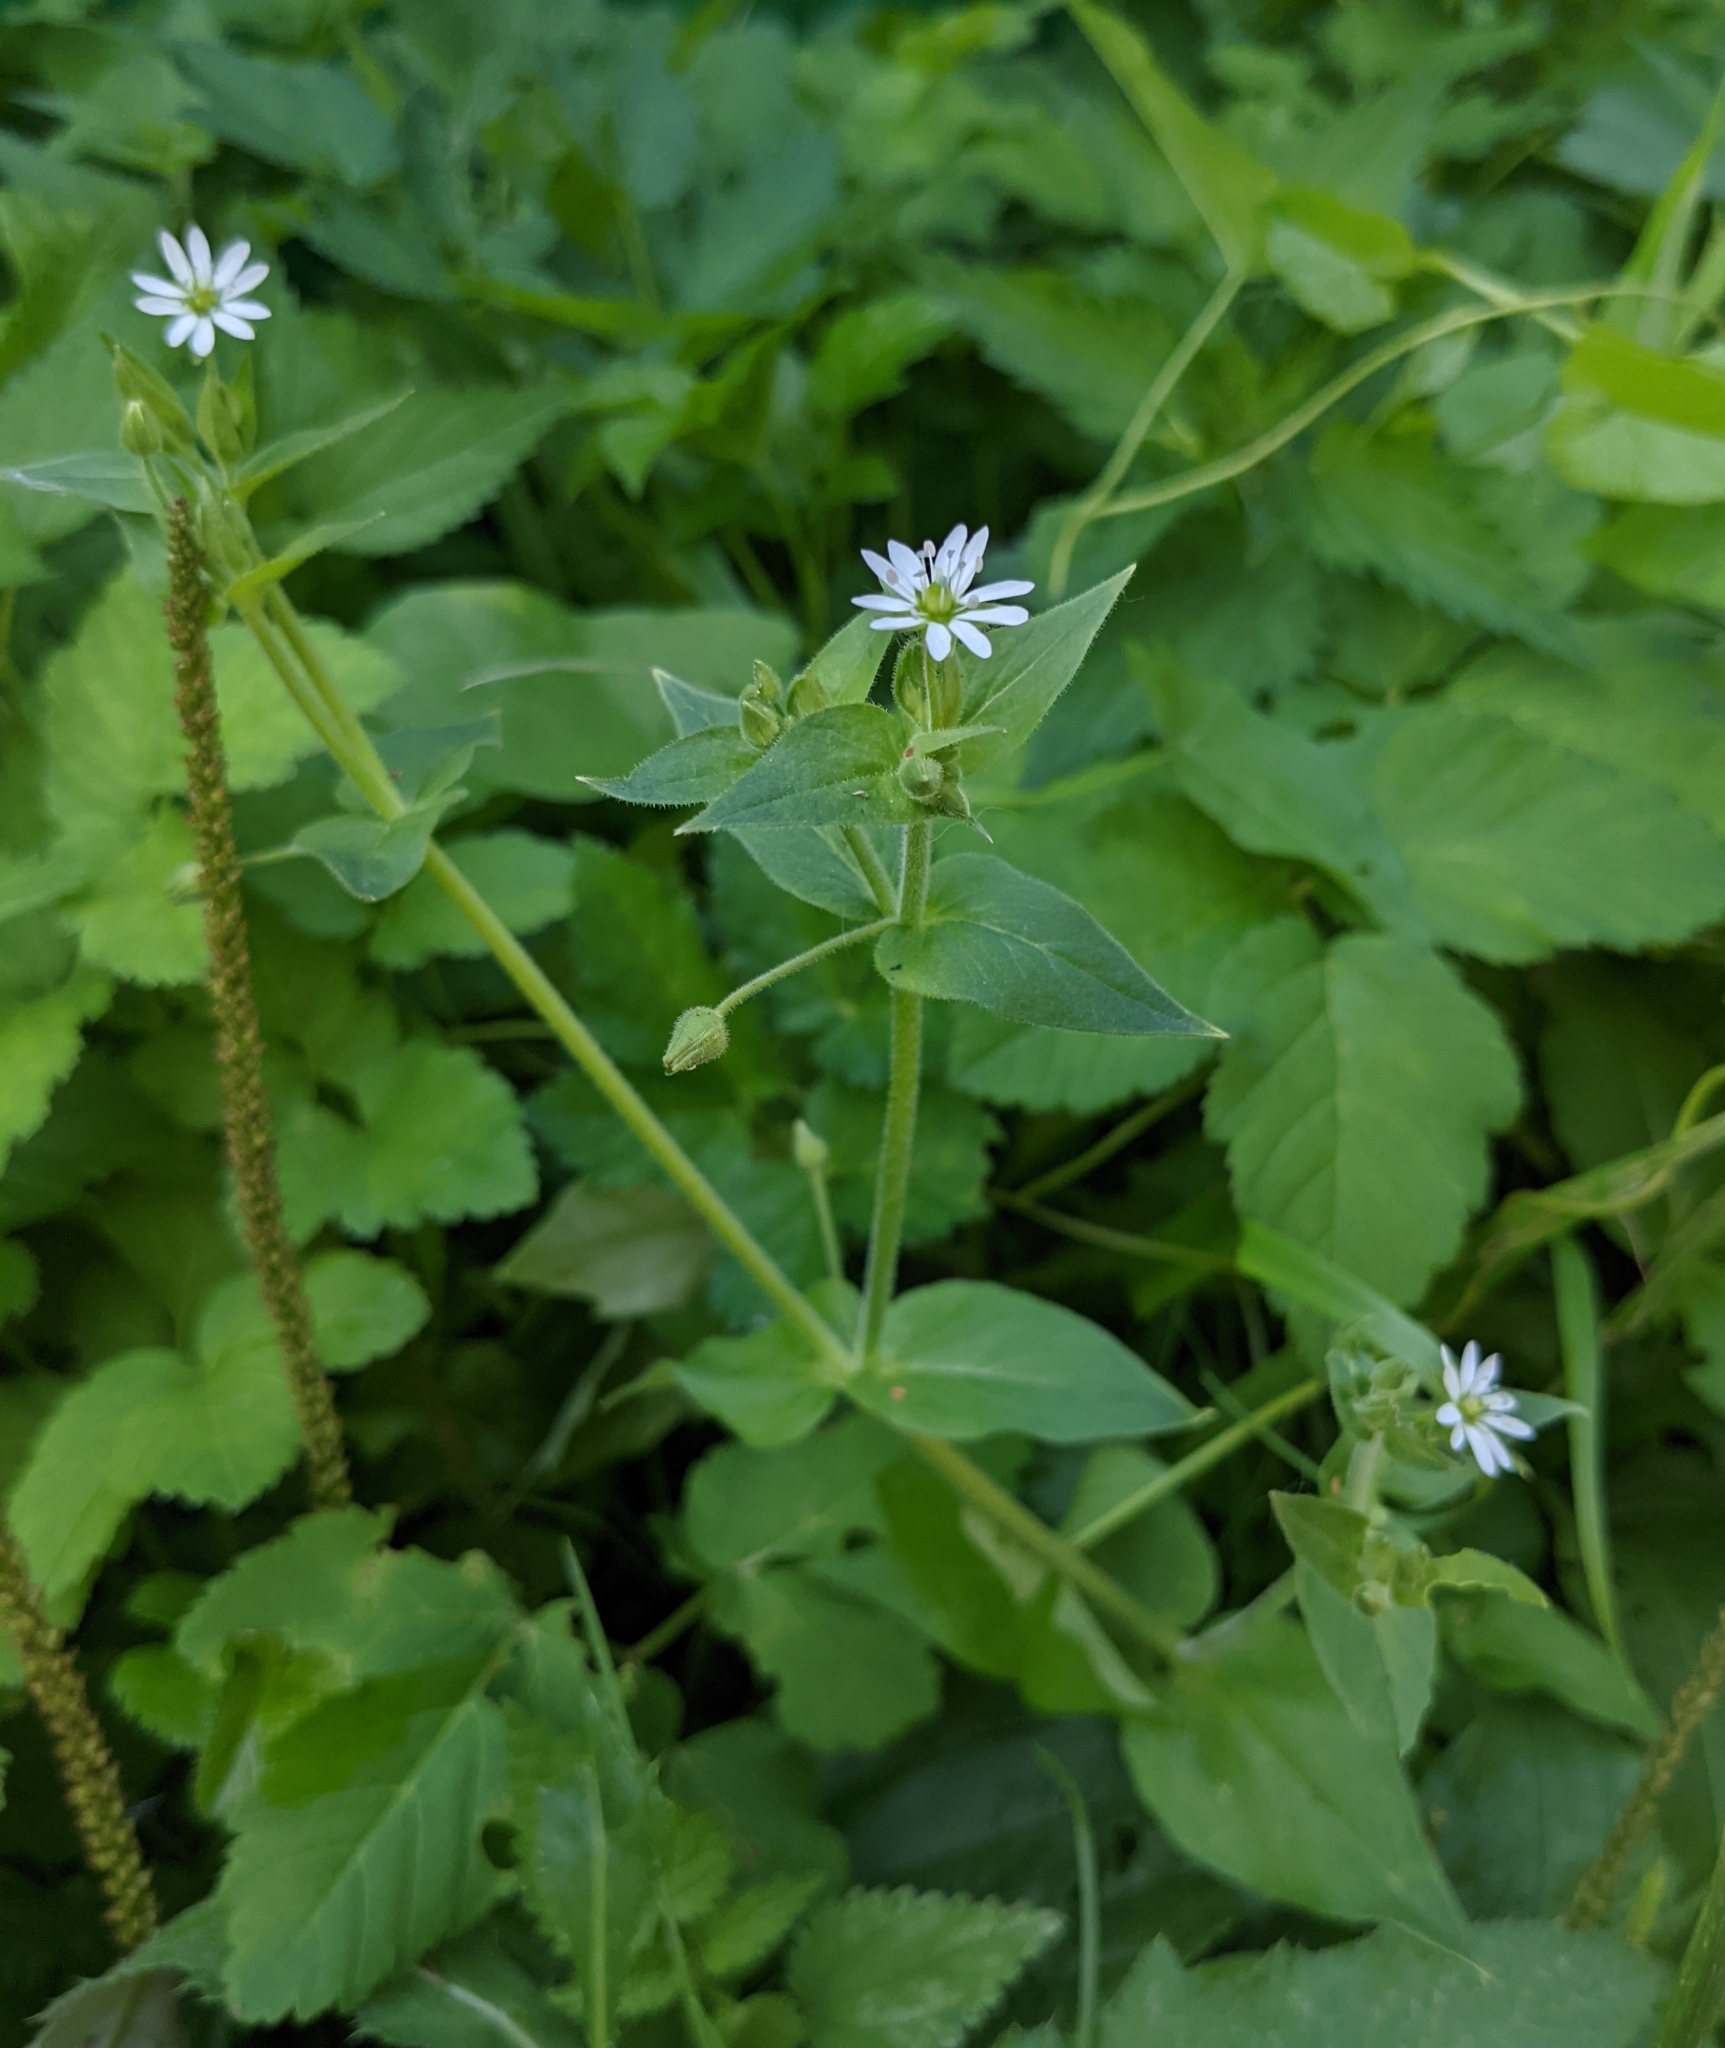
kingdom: Plantae
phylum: Tracheophyta
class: Magnoliopsida
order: Caryophyllales
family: Caryophyllaceae
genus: Stellaria
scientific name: Stellaria aquatica
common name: Water chickweed
